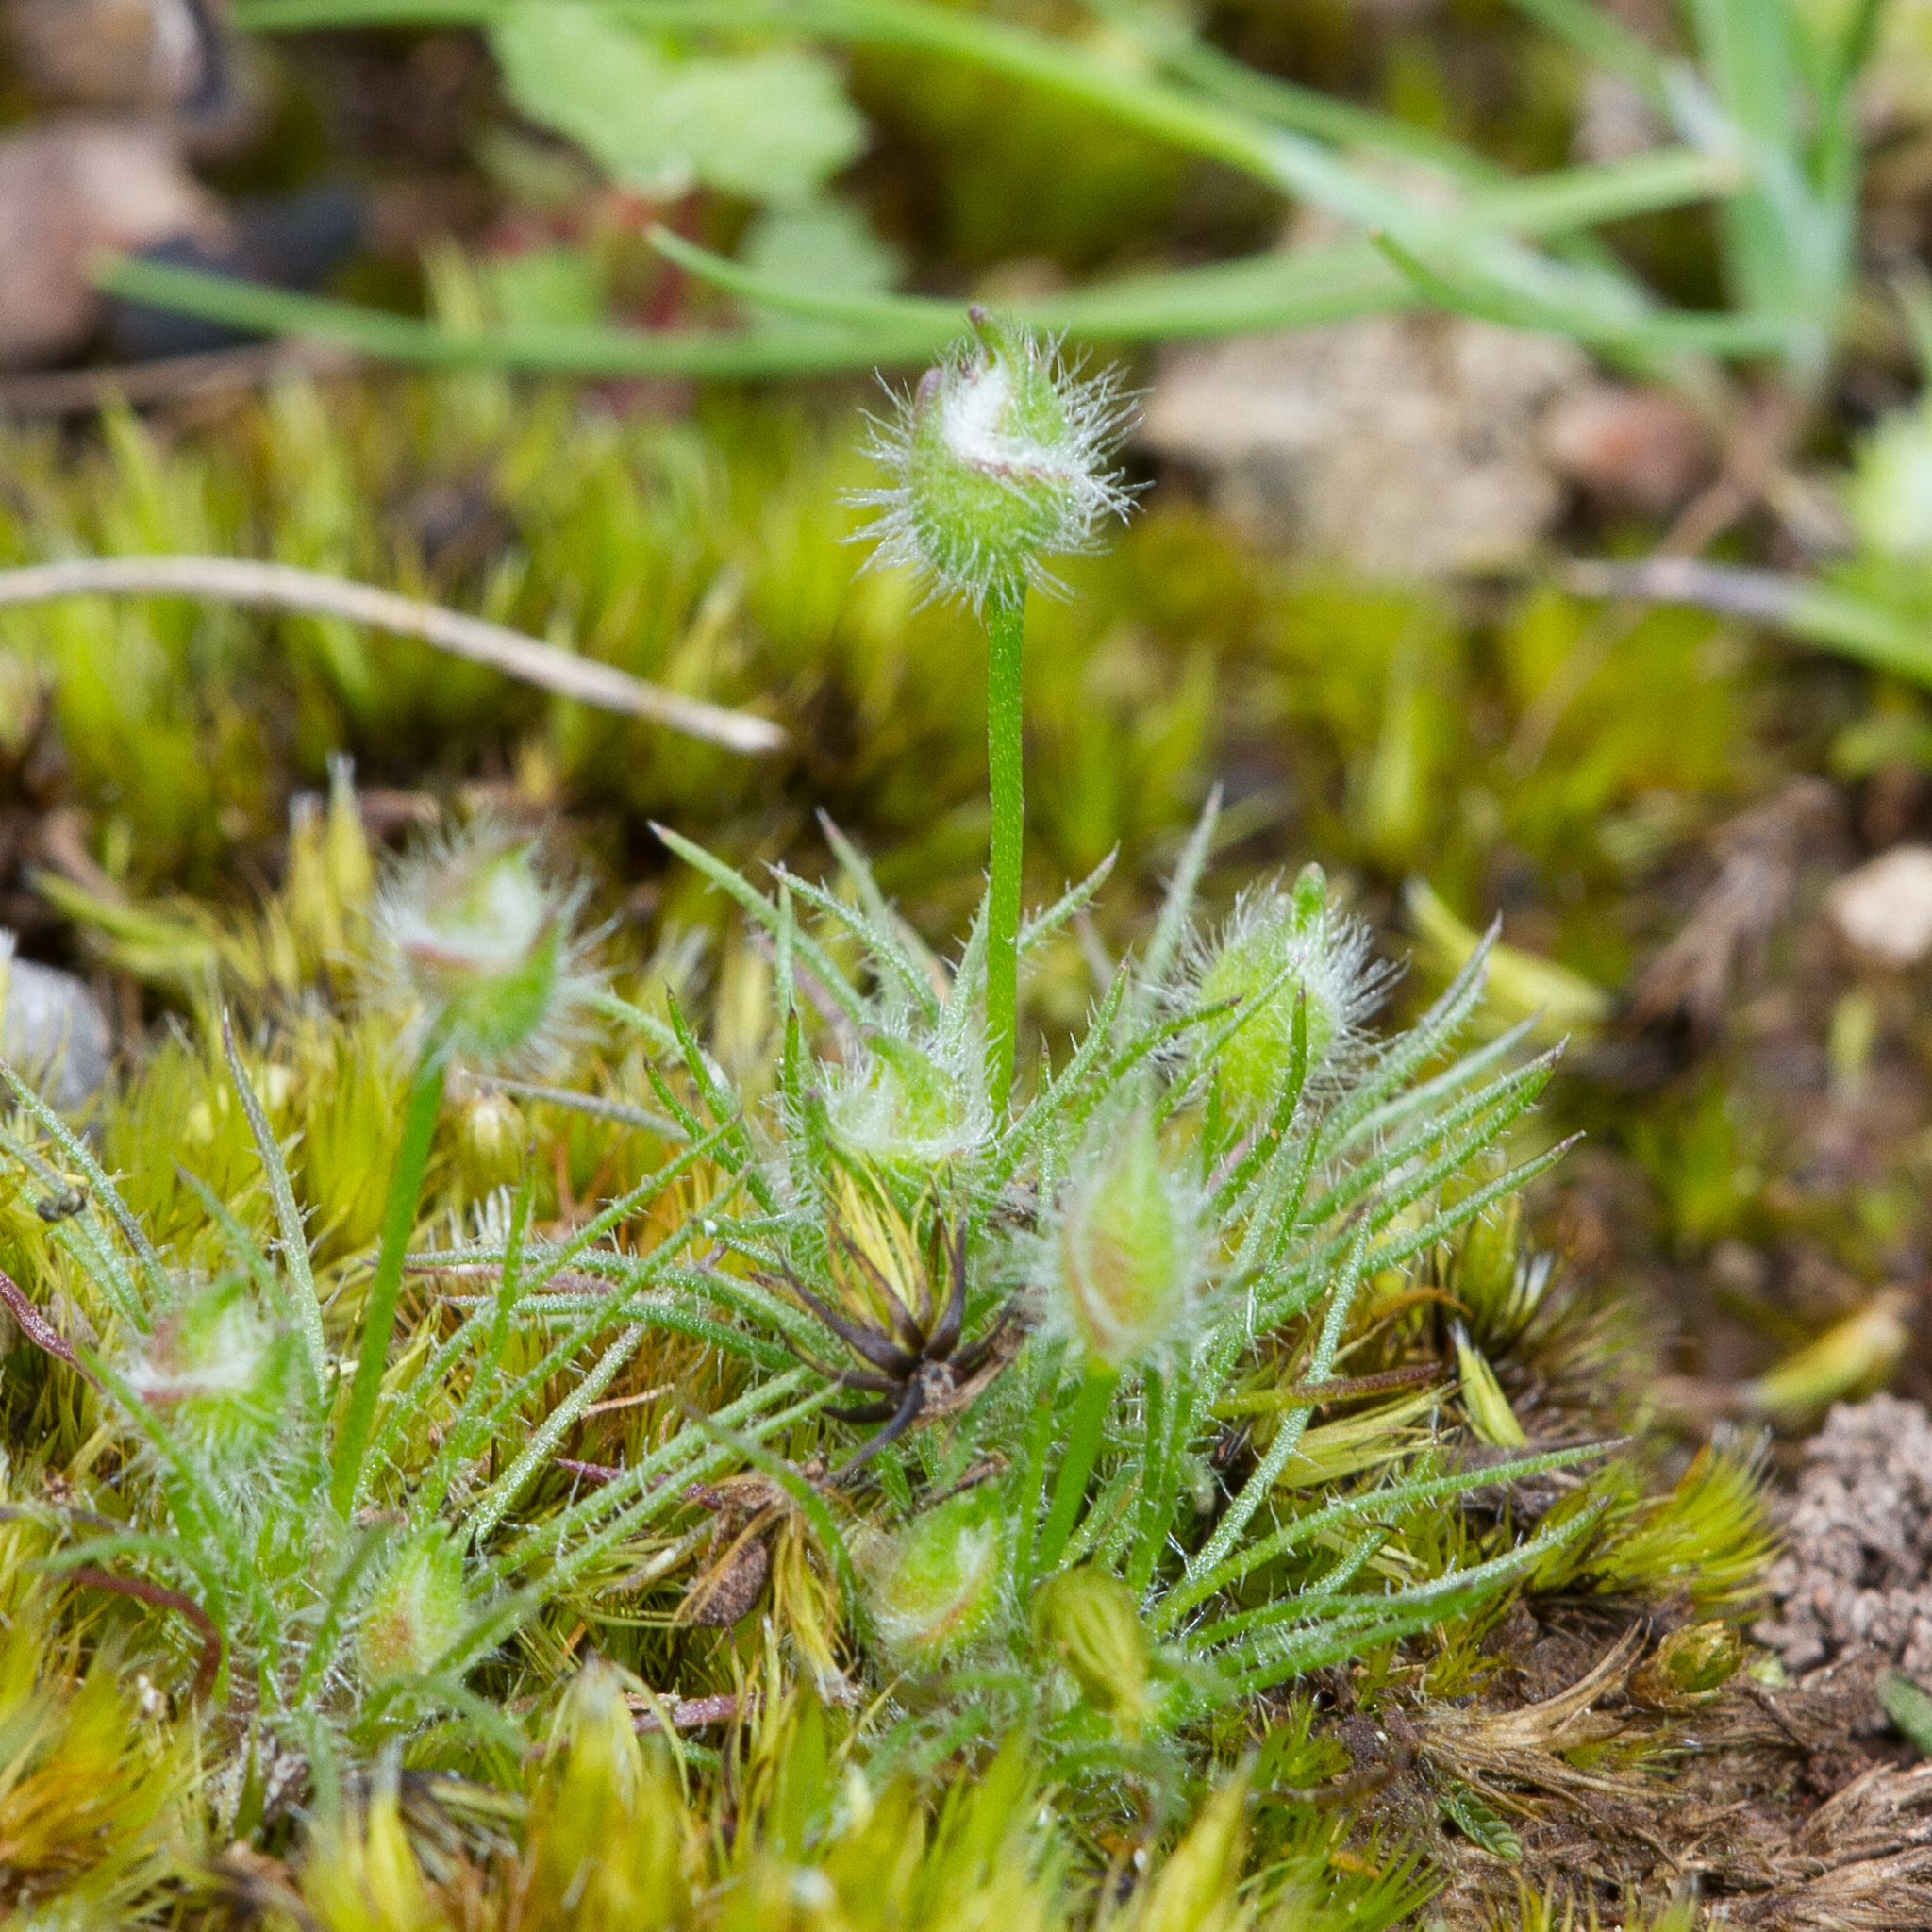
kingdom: Plantae
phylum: Tracheophyta
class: Liliopsida
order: Poales
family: Restionaceae
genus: Centrolepis
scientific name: Centrolepis strigosa
